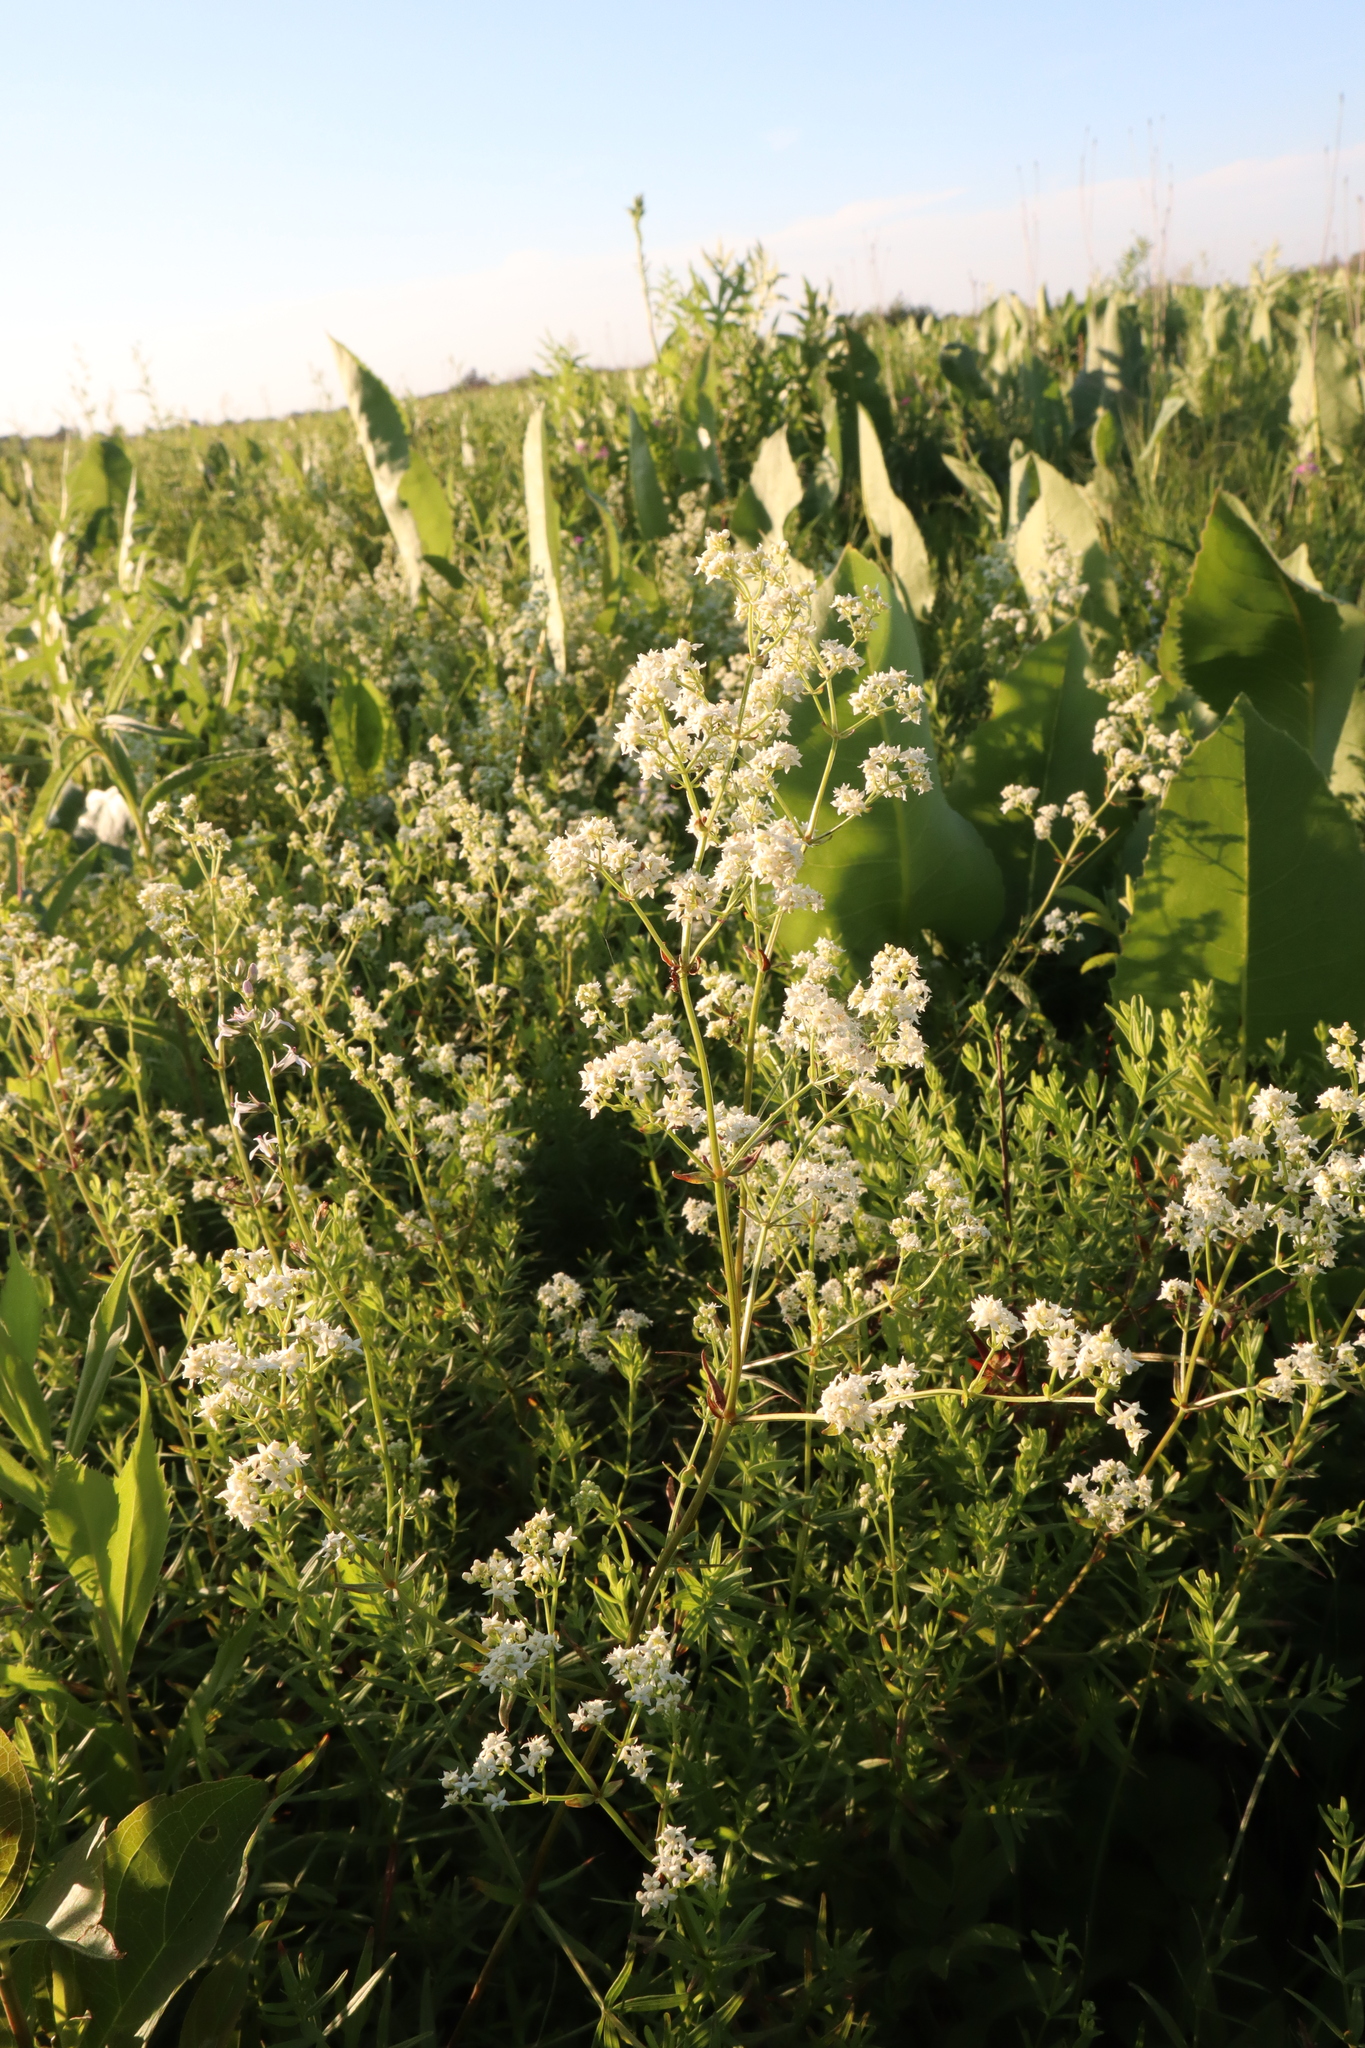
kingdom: Plantae
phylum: Tracheophyta
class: Magnoliopsida
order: Gentianales
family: Rubiaceae
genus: Galium
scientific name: Galium boreale
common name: Northern bedstraw
